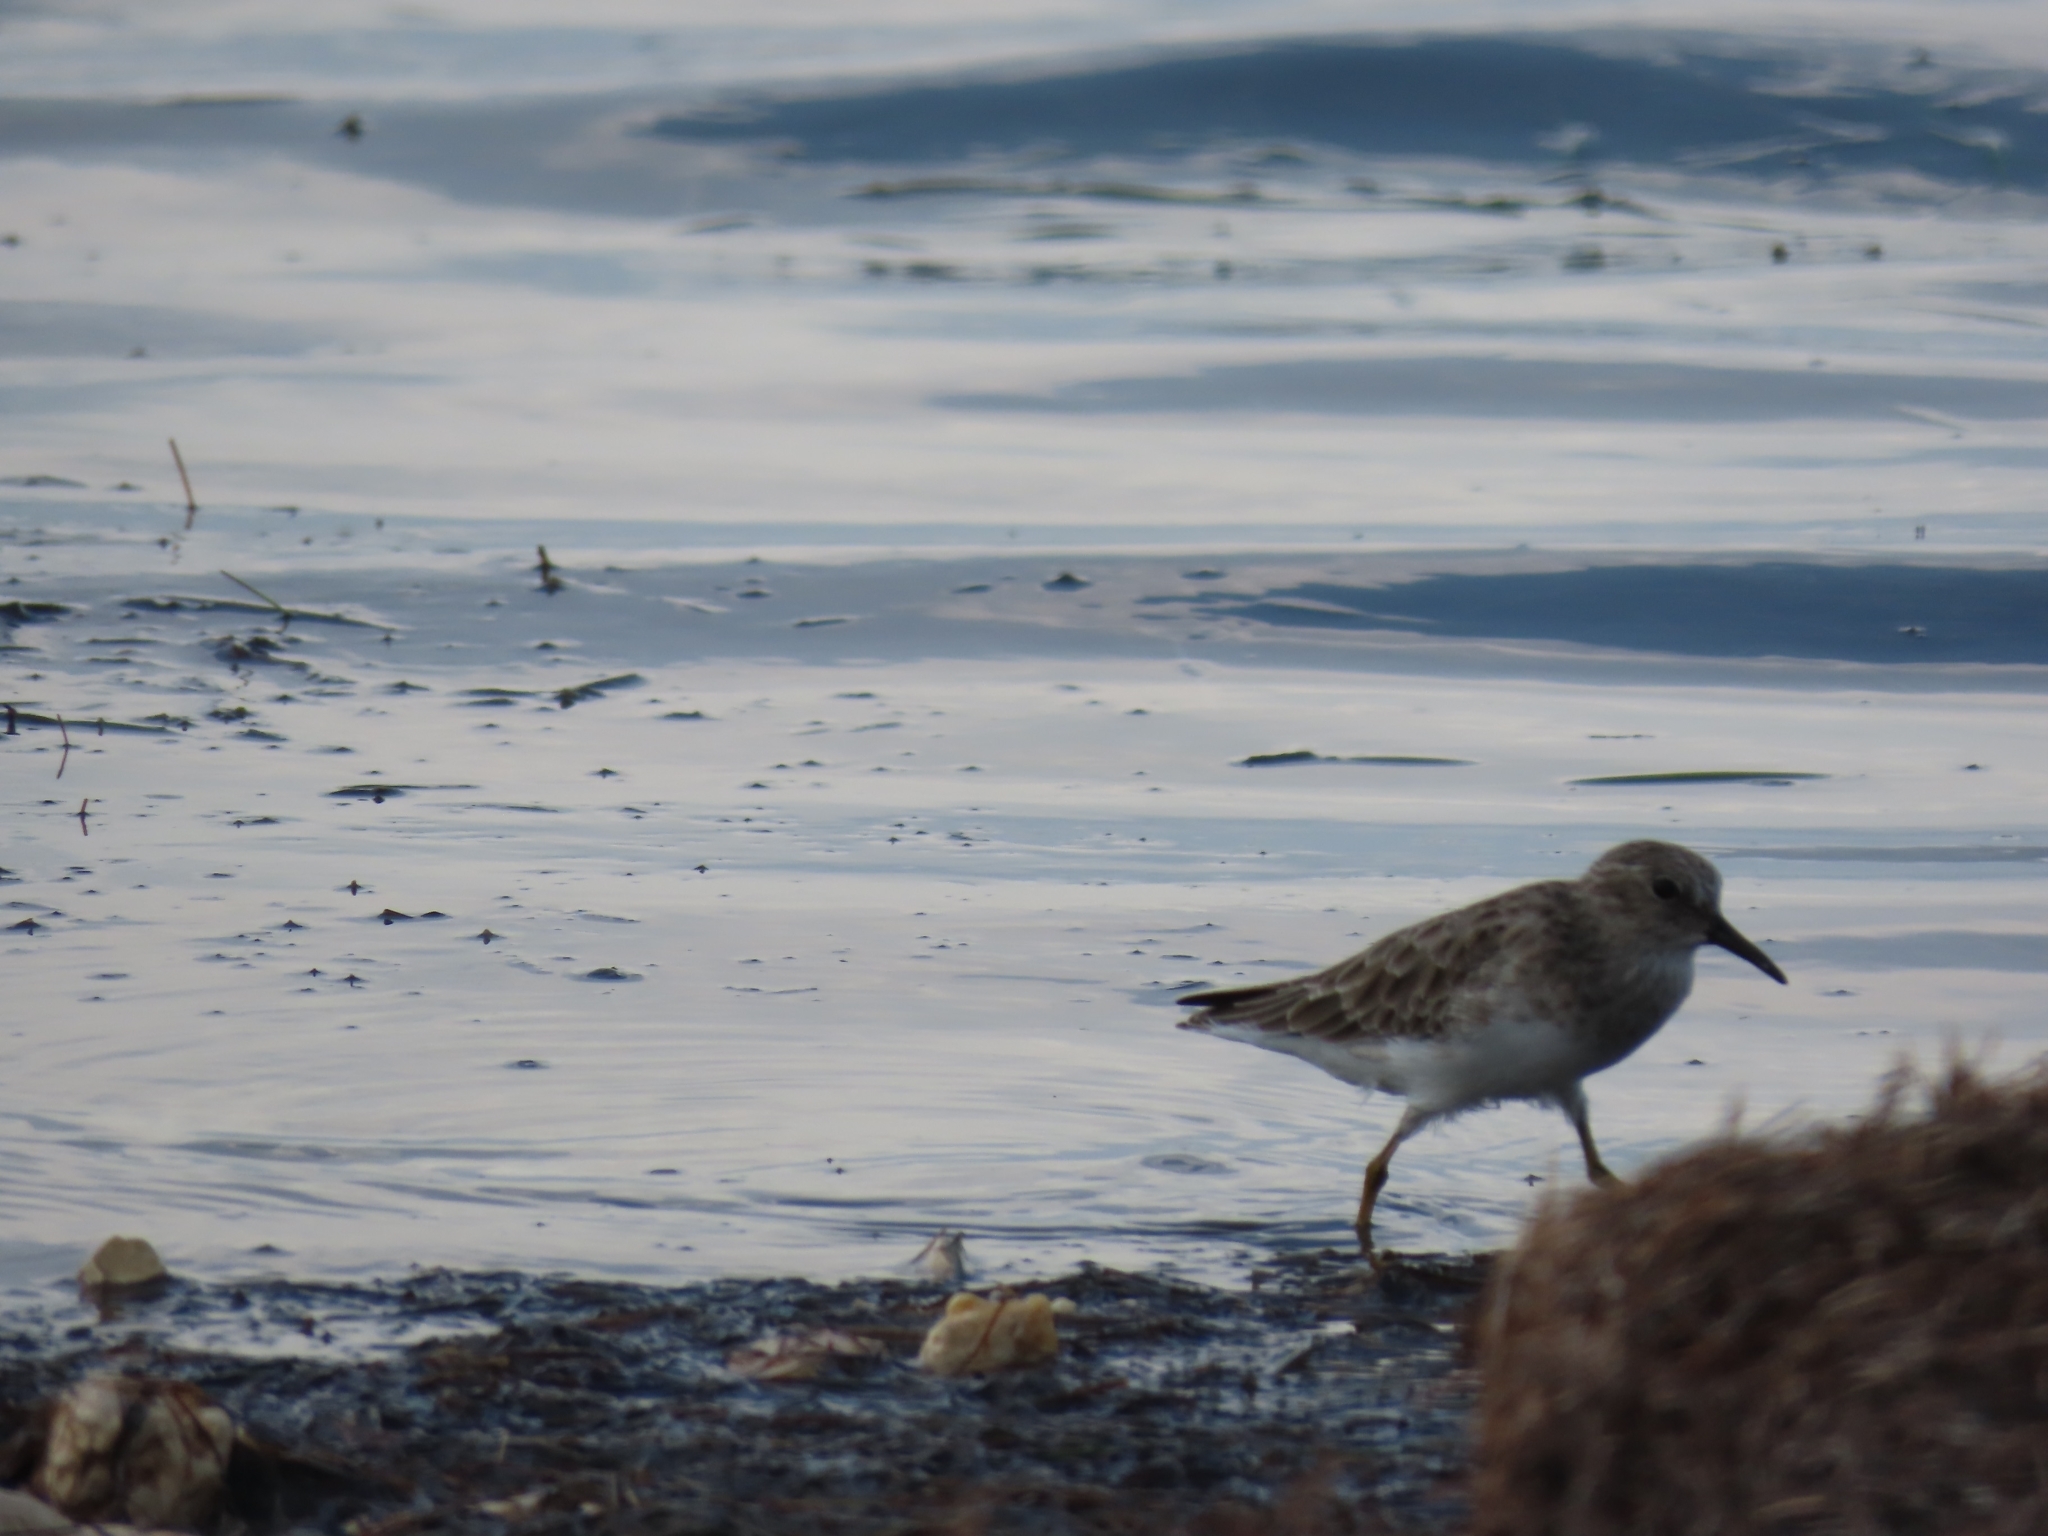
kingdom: Animalia
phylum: Chordata
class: Aves
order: Charadriiformes
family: Scolopacidae
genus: Calidris
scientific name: Calidris minutilla
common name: Least sandpiper
